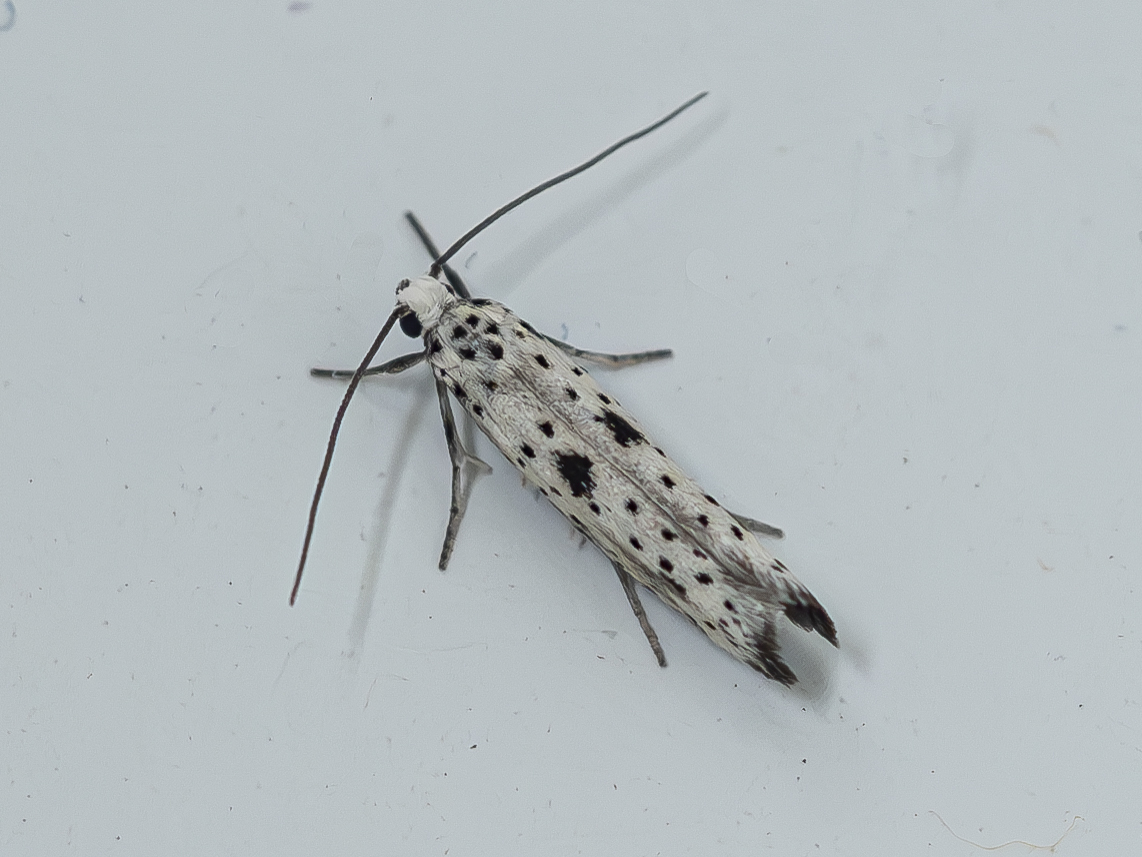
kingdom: Animalia
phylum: Arthropoda
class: Insecta
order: Lepidoptera
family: Yponomeutidae
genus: Yponomeuta
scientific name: Yponomeuta plumbella
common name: Black-tipped ermine
